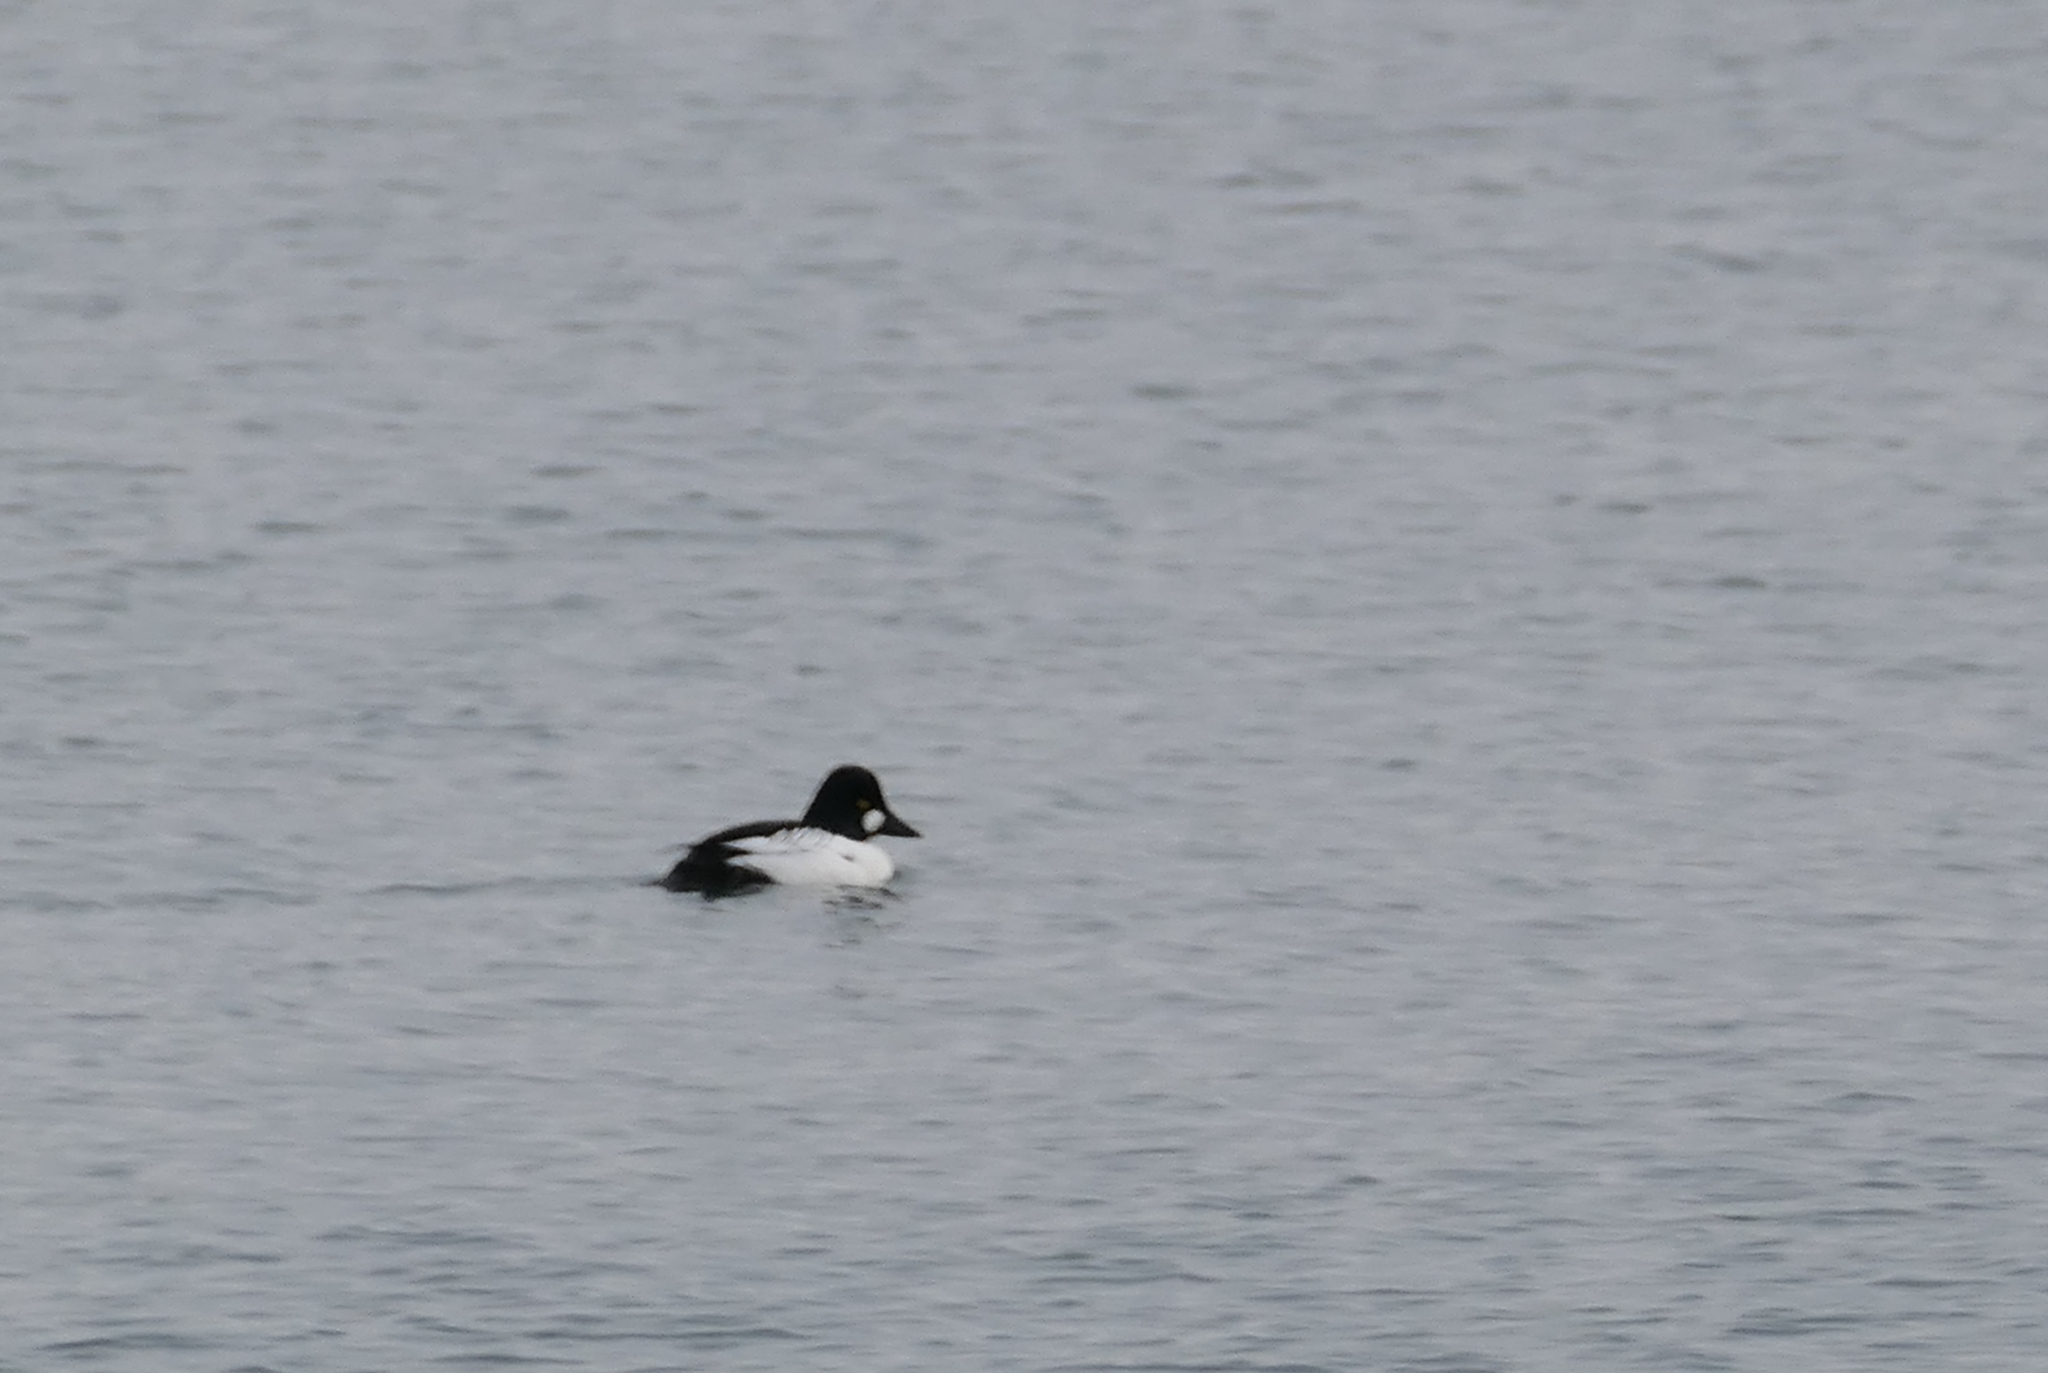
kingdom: Animalia
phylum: Chordata
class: Aves
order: Anseriformes
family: Anatidae
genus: Bucephala
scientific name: Bucephala clangula
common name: Common goldeneye
